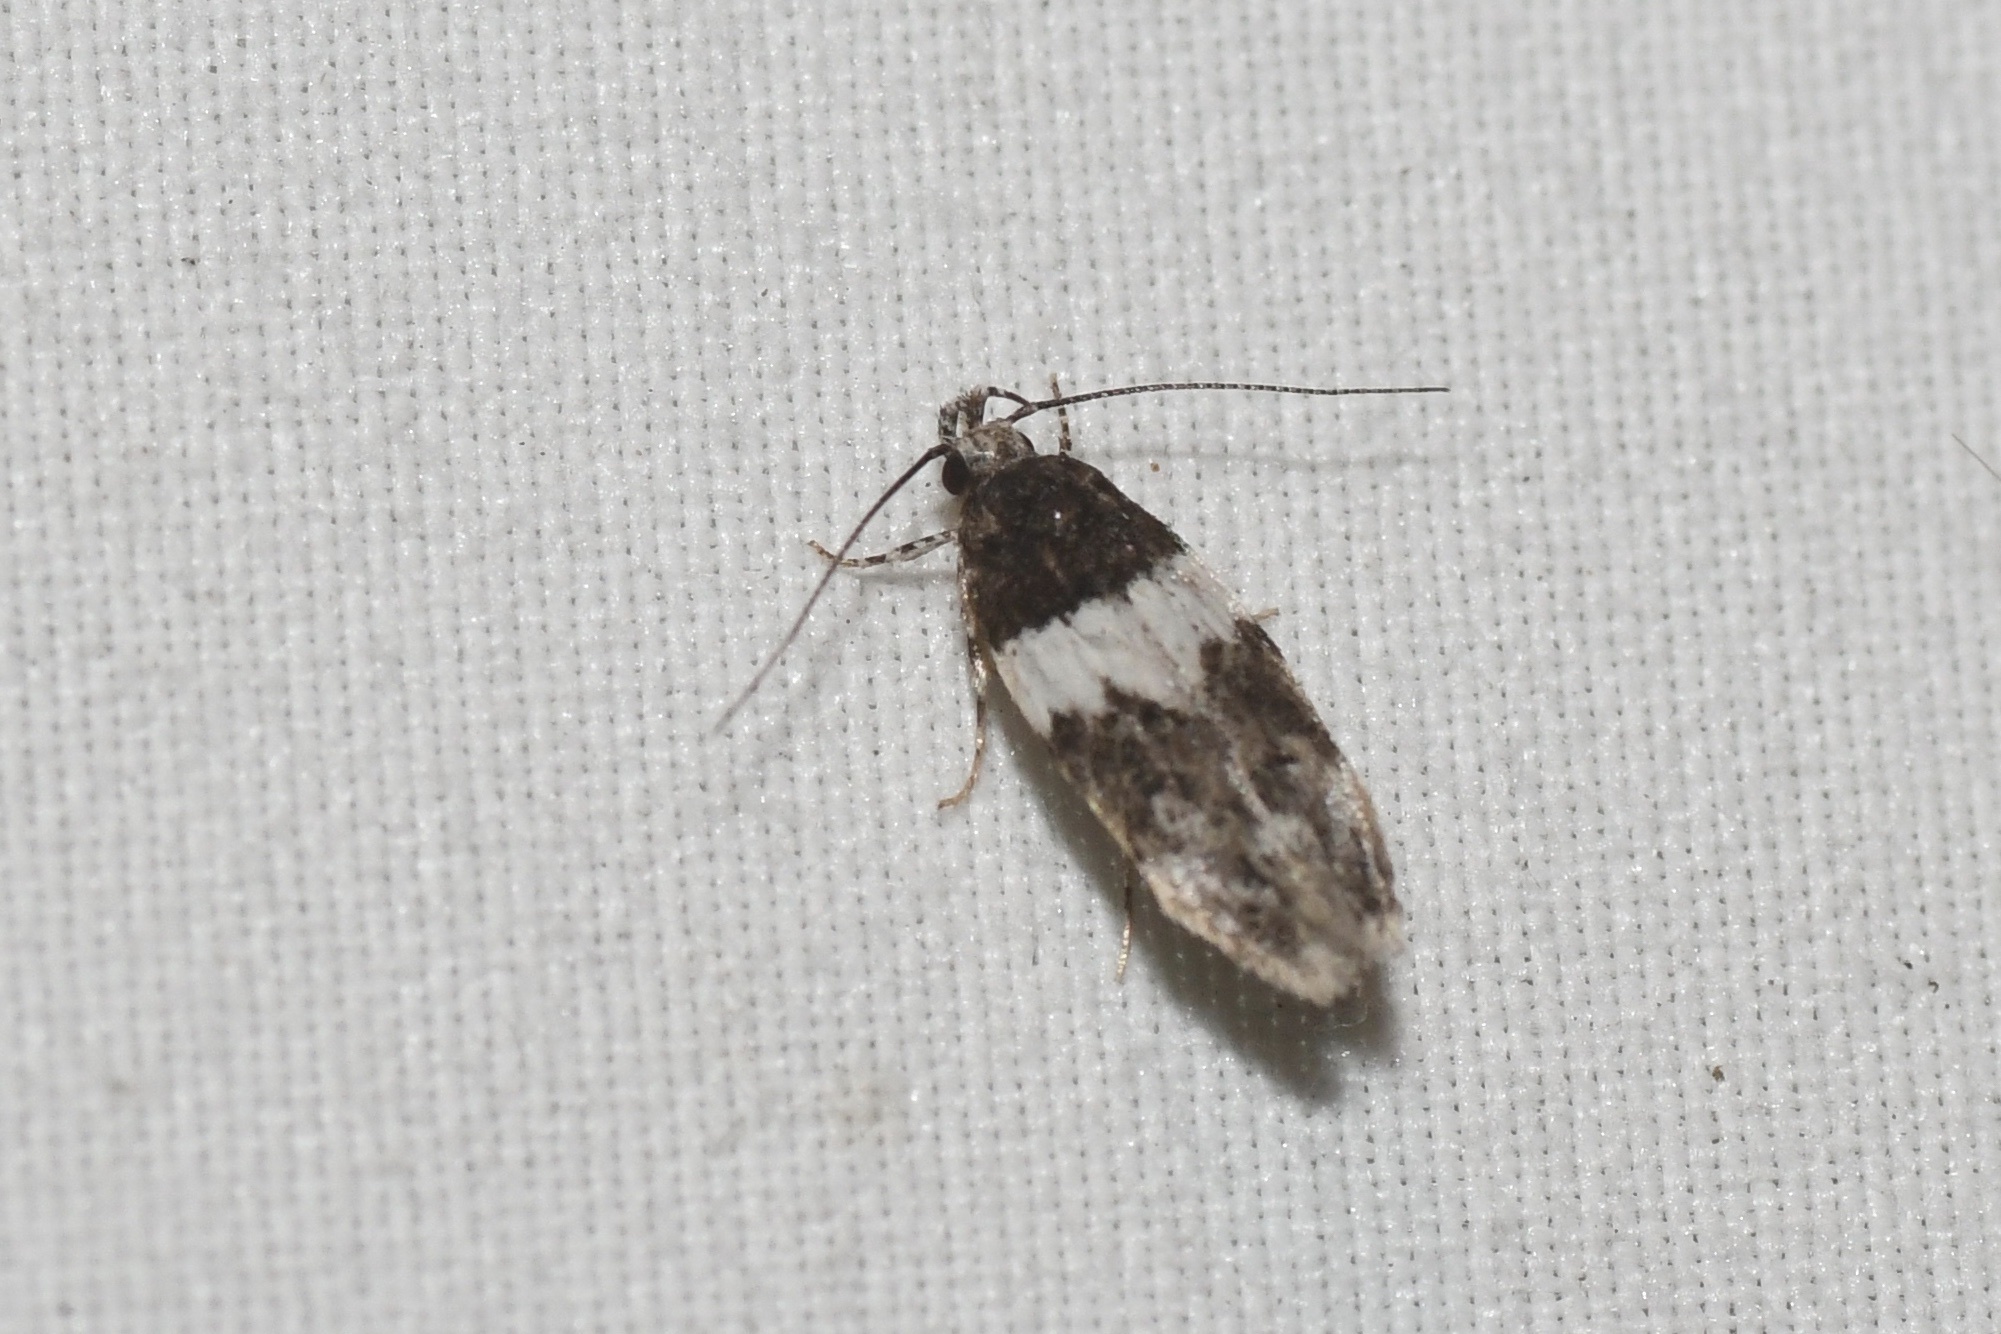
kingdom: Animalia
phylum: Arthropoda
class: Insecta
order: Lepidoptera
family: Gelechiidae
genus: Pubitelphusa
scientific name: Pubitelphusa latifasciella
